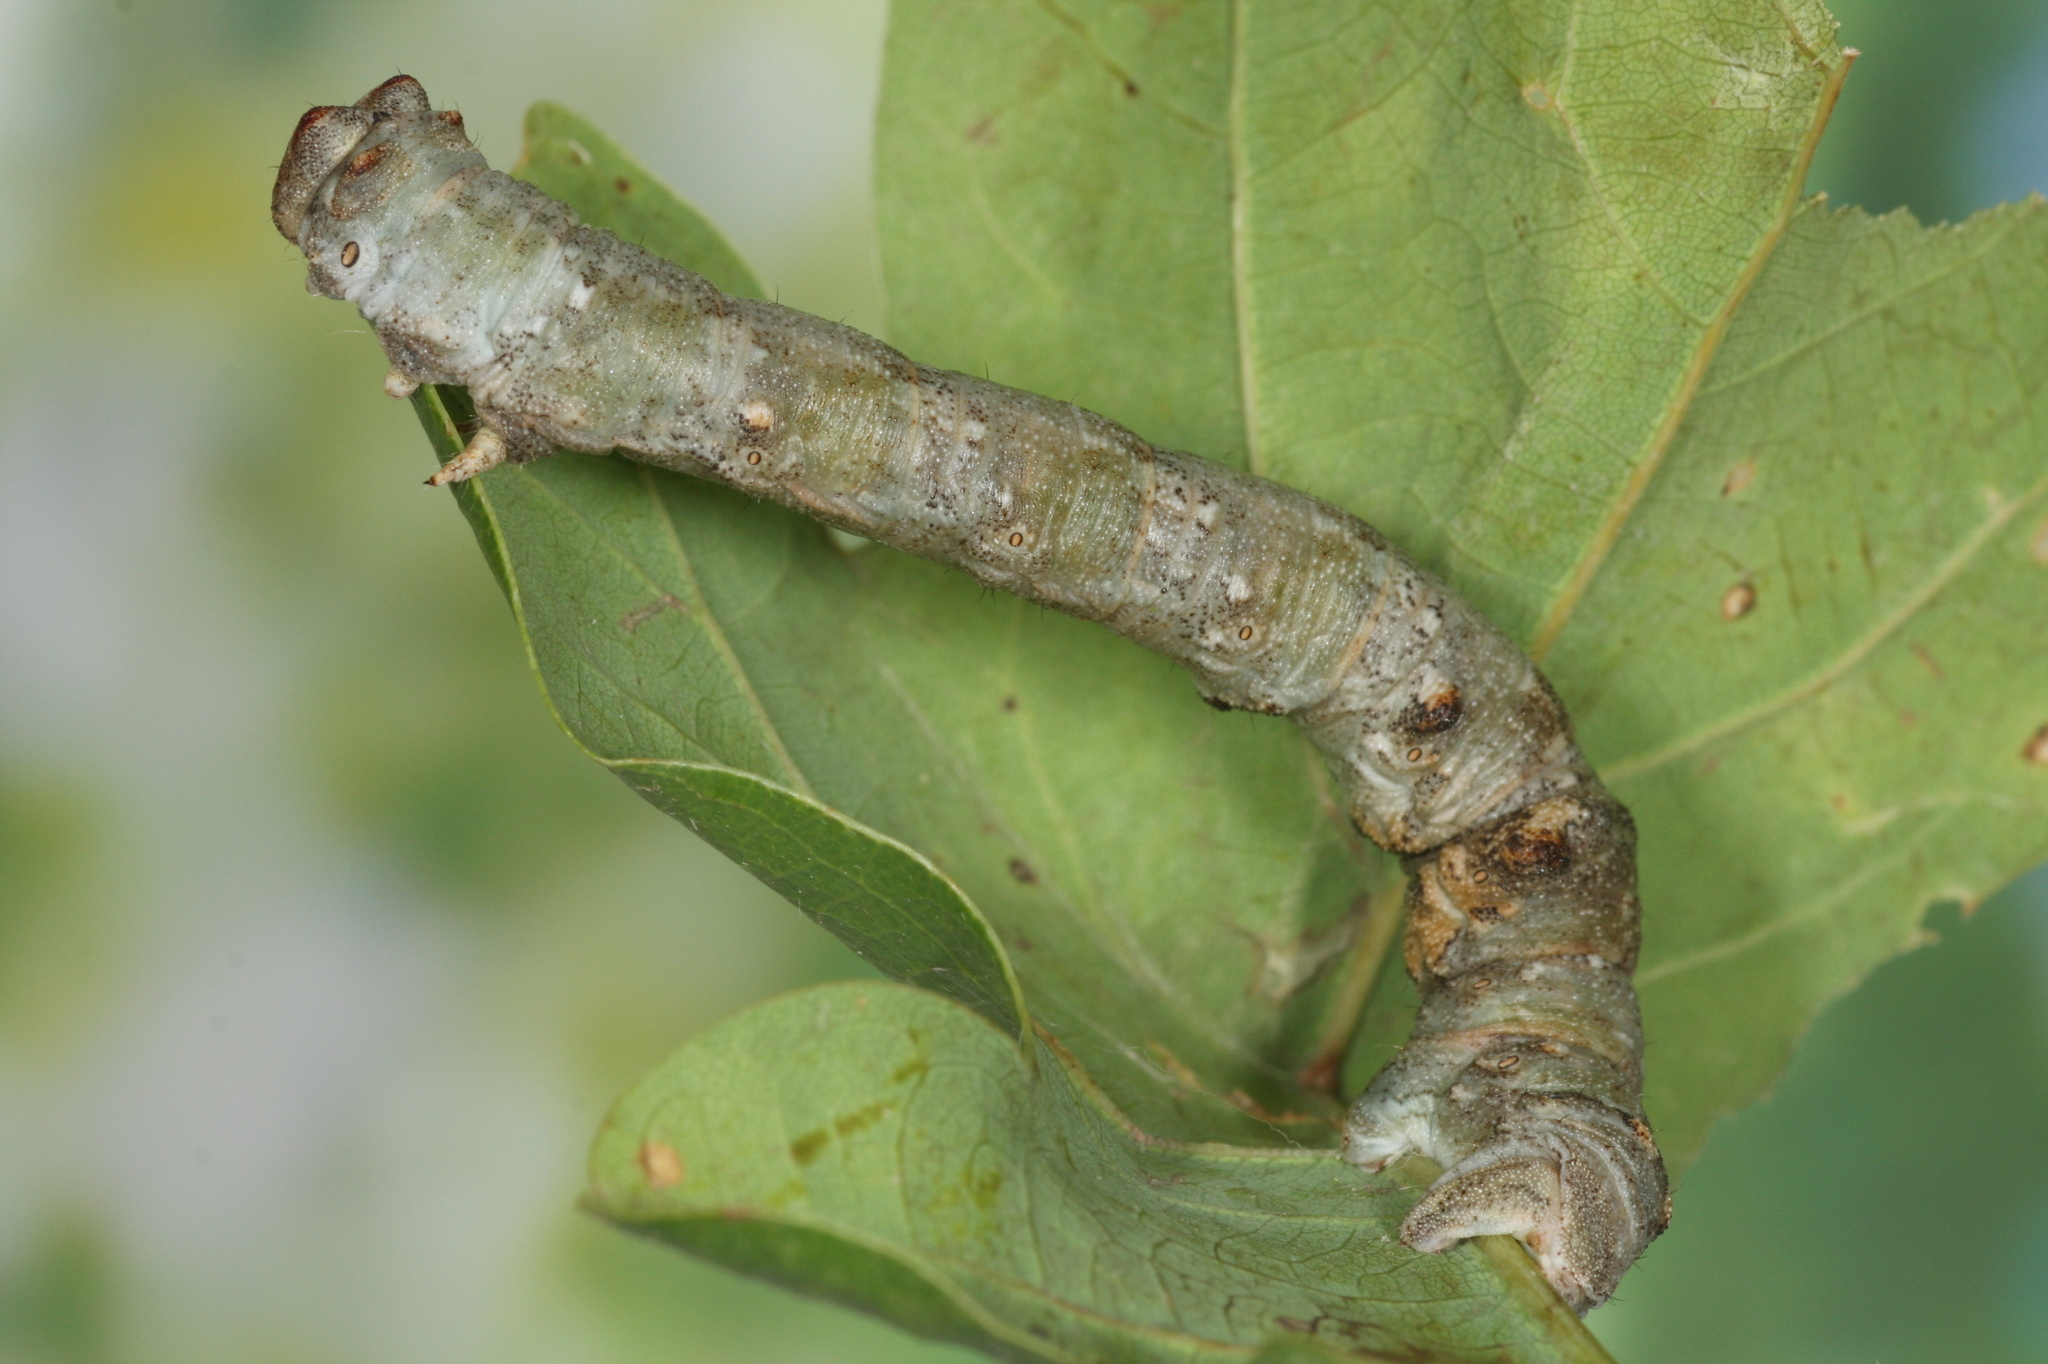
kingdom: Animalia
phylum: Arthropoda
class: Insecta
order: Lepidoptera
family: Geometridae
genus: Biston
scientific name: Biston strataria
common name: Oak beauty
